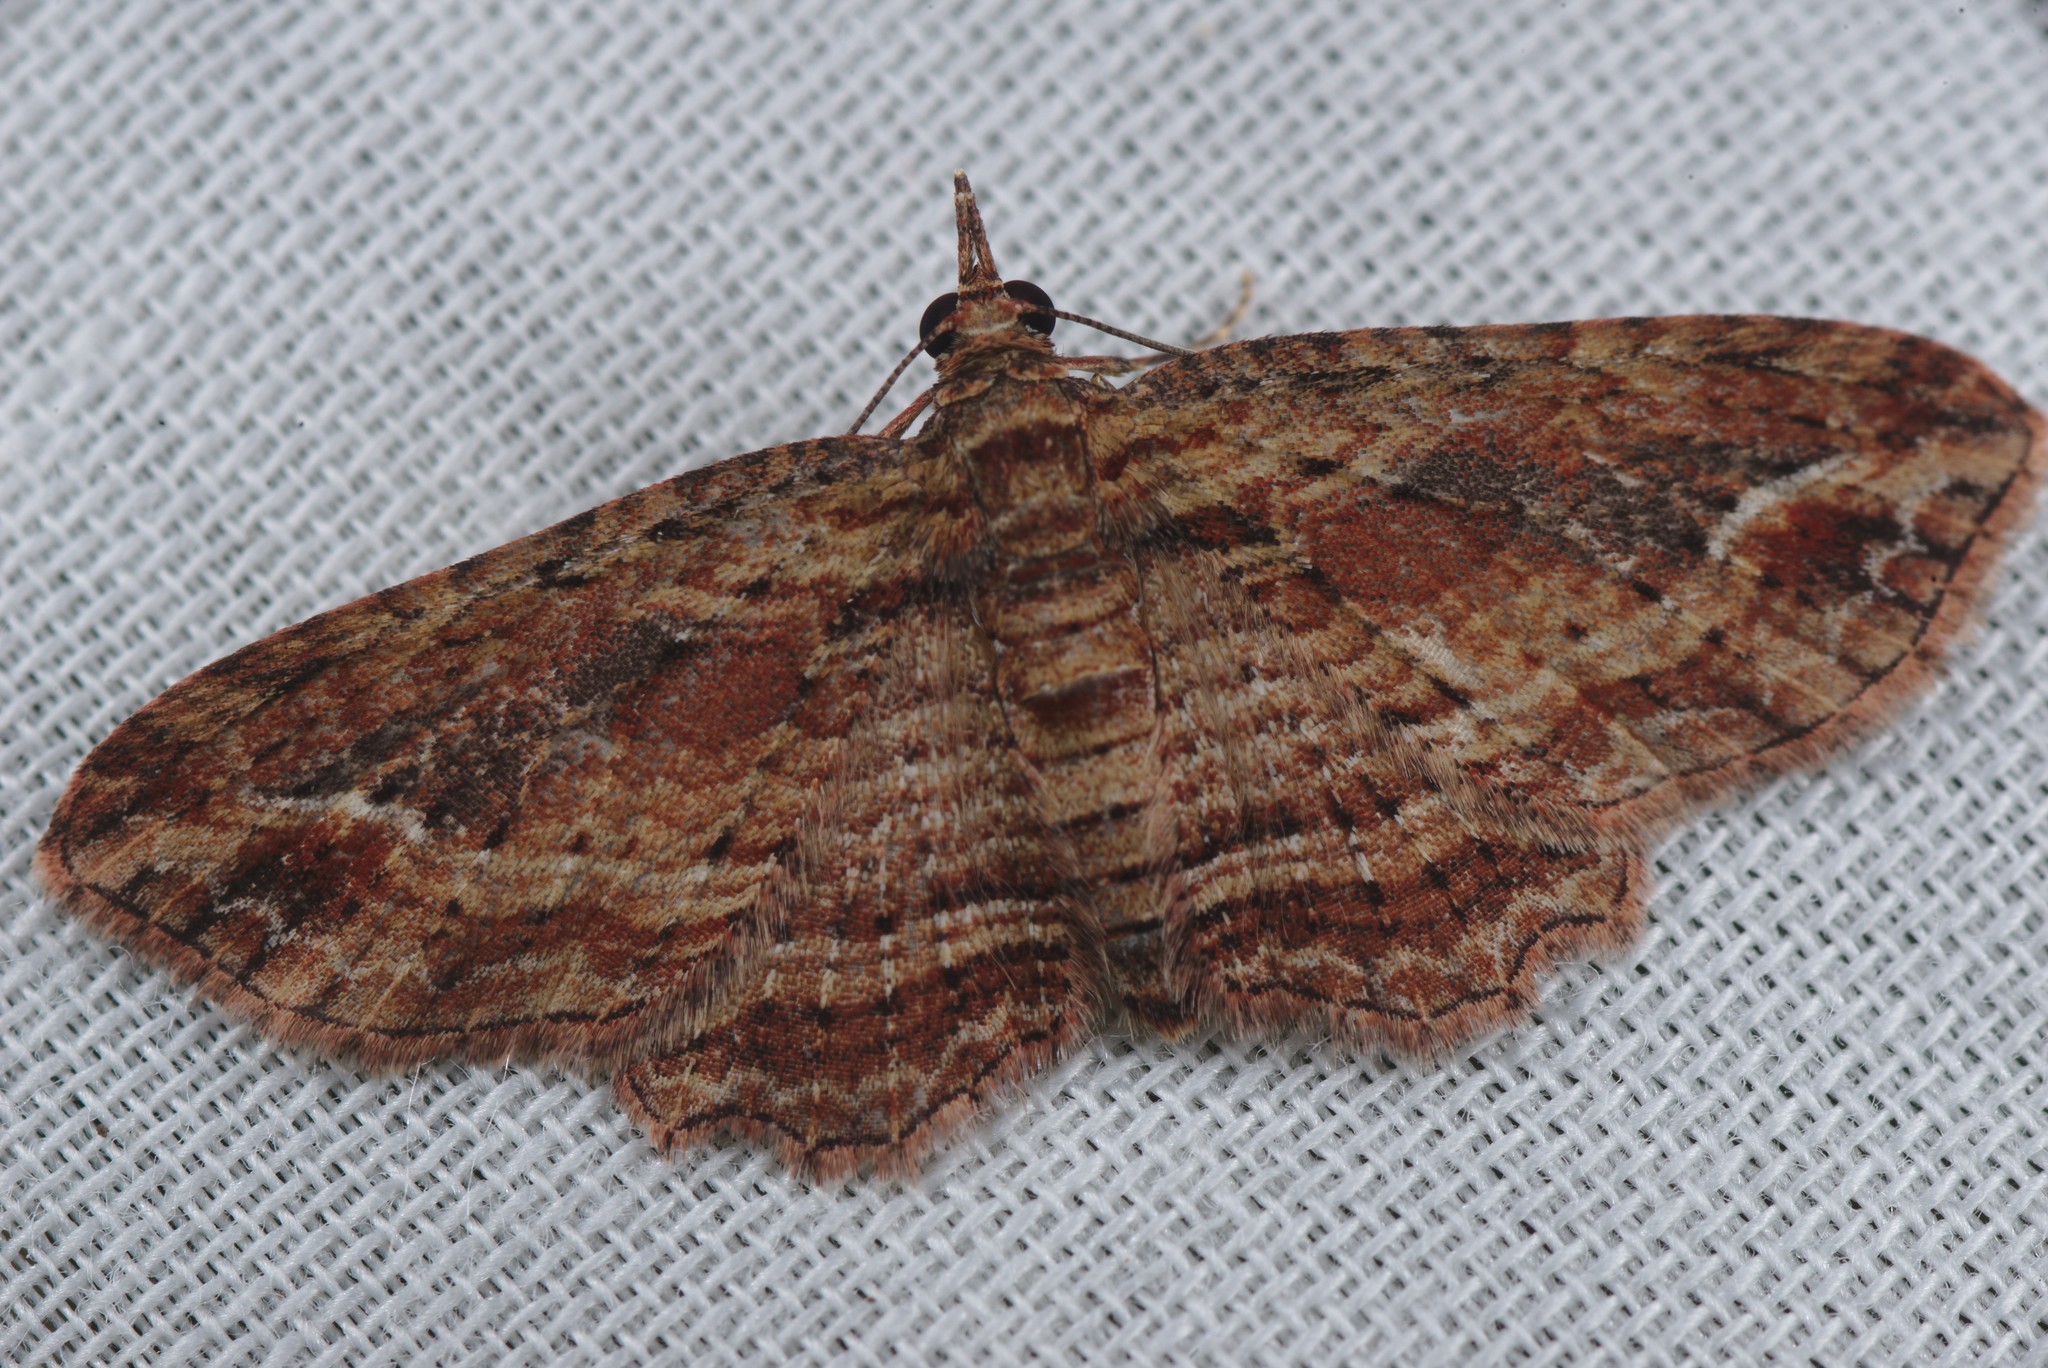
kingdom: Animalia
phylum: Arthropoda
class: Insecta
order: Lepidoptera
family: Geometridae
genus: Chloroclystis
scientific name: Chloroclystis filata
